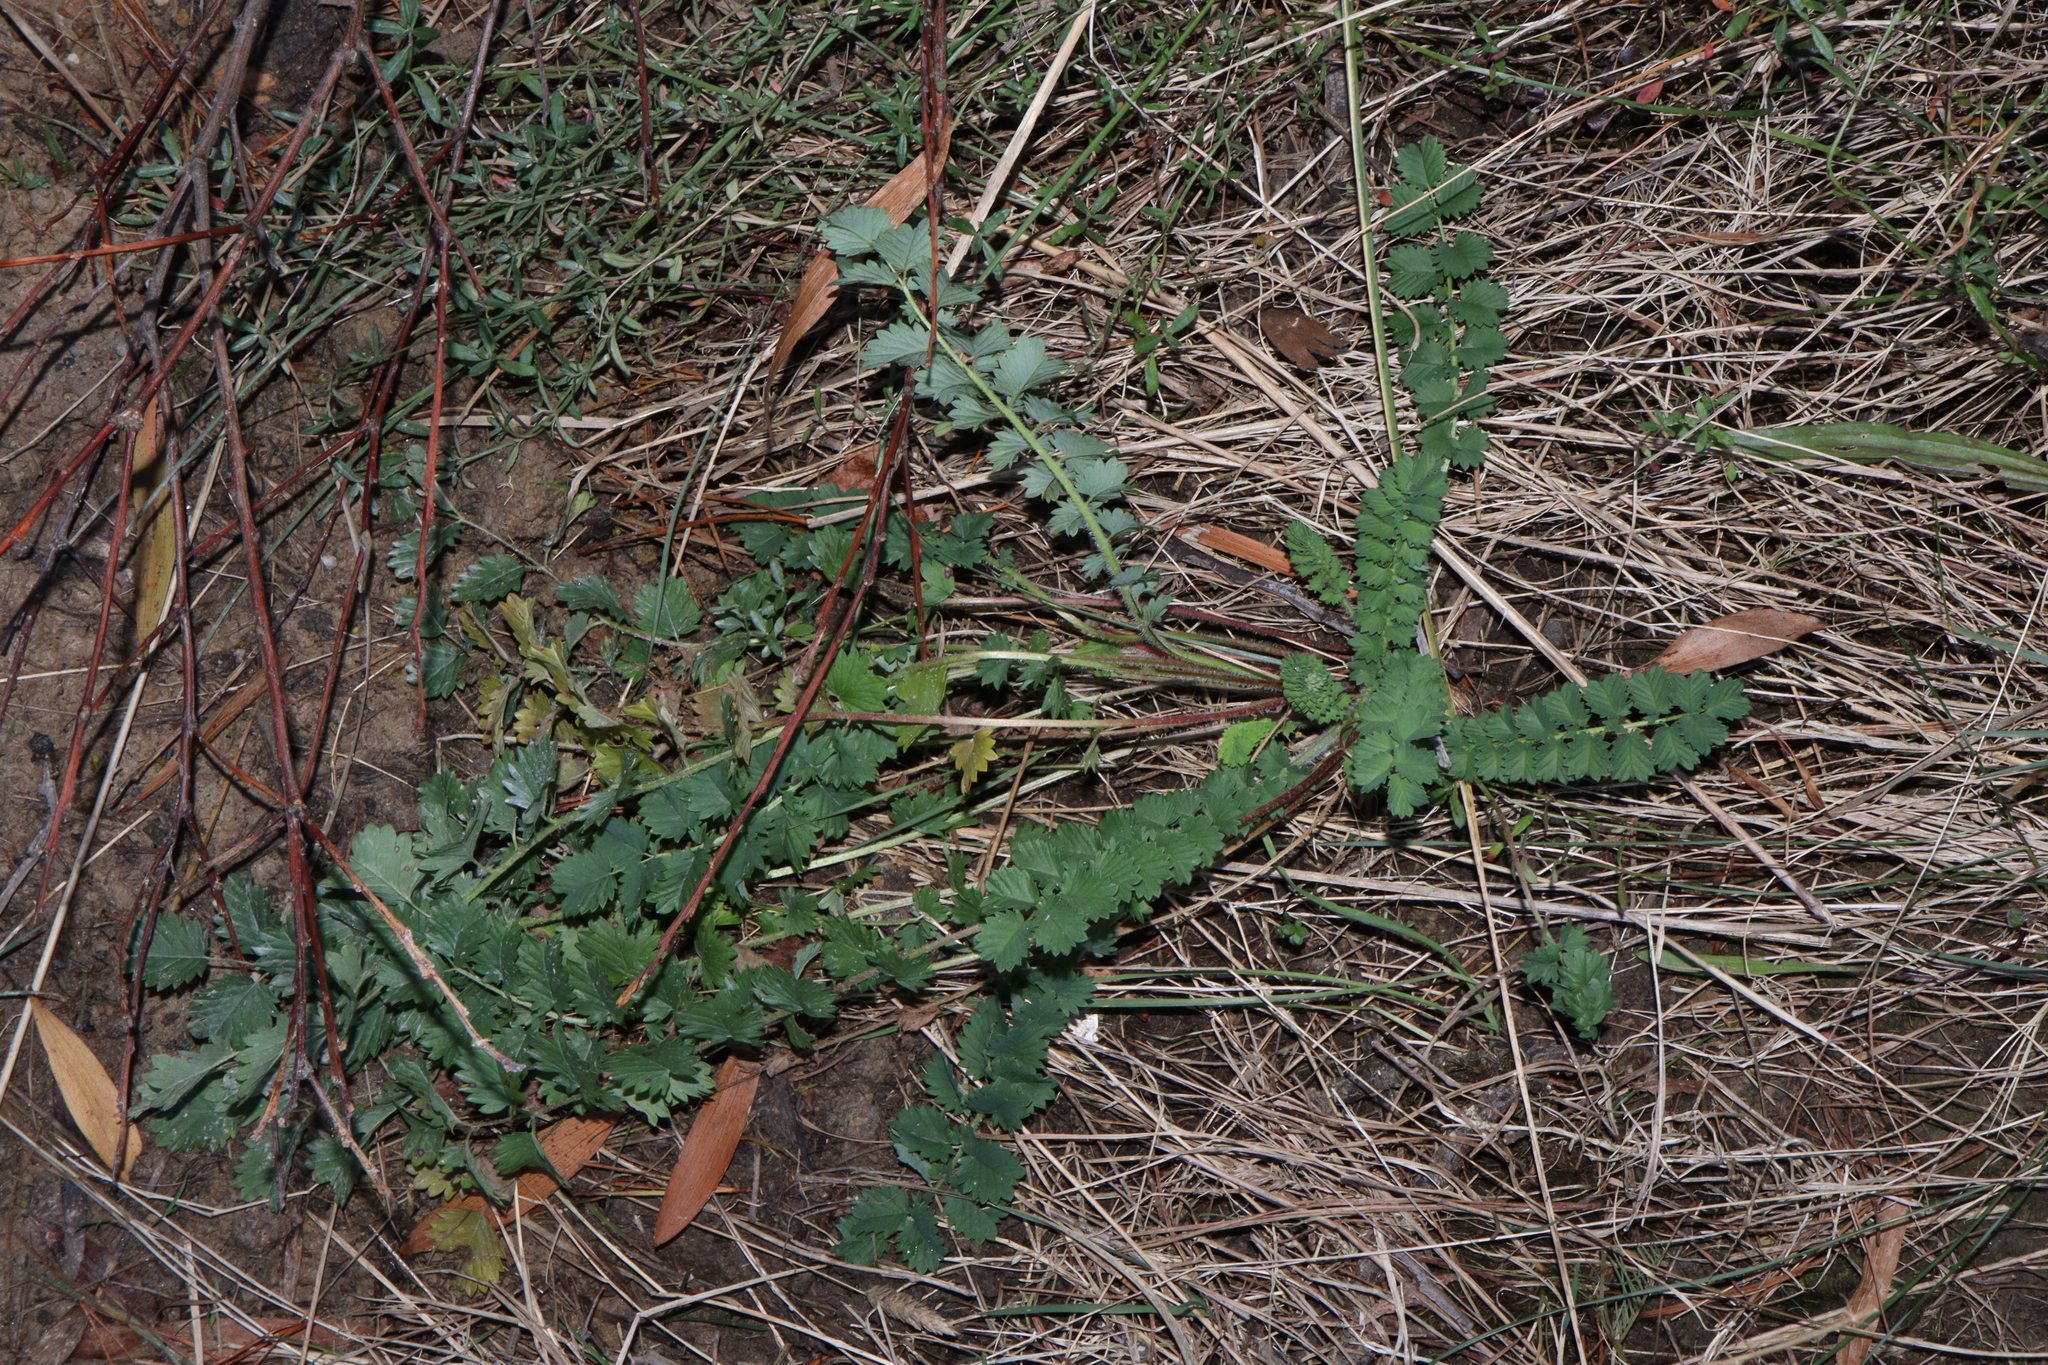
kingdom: Plantae
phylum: Tracheophyta
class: Magnoliopsida
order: Rosales
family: Rosaceae
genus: Poterium
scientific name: Poterium sanguisorba
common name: Salad burnet
